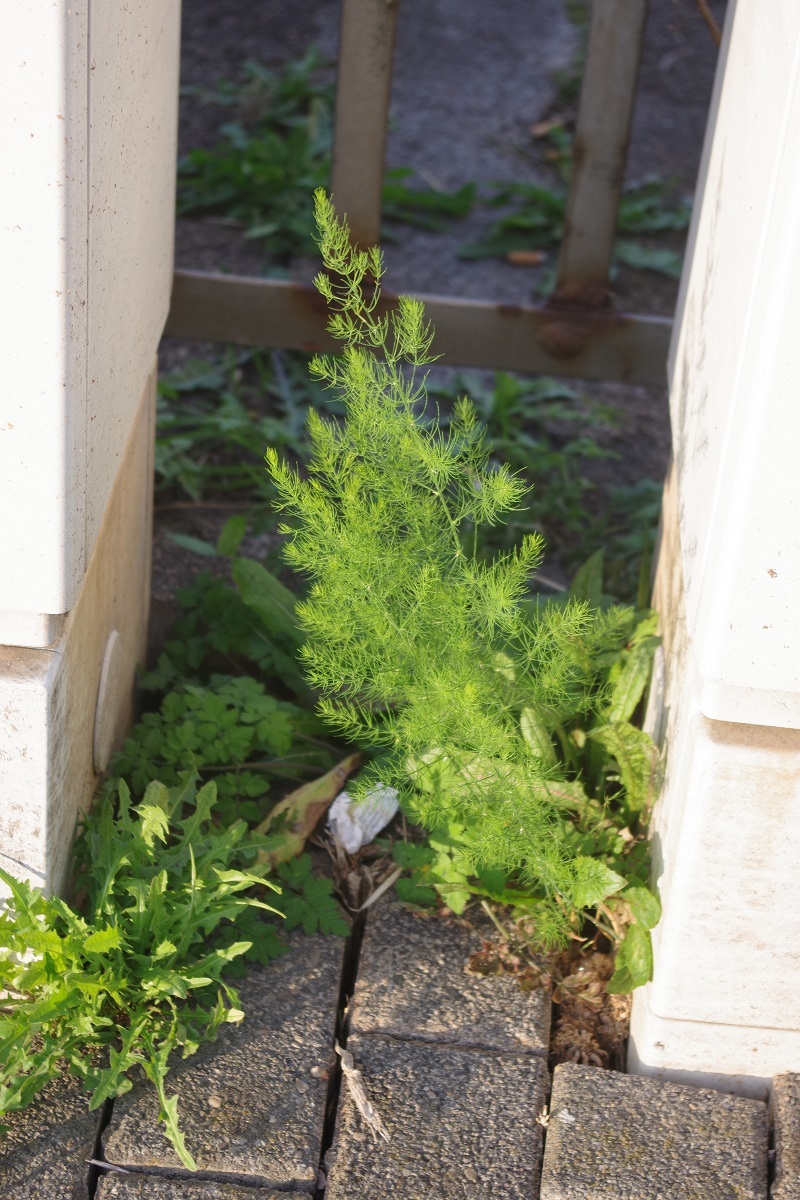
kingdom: Plantae
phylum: Tracheophyta
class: Liliopsida
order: Asparagales
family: Asparagaceae
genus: Asparagus
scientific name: Asparagus officinalis
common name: Garden asparagus
